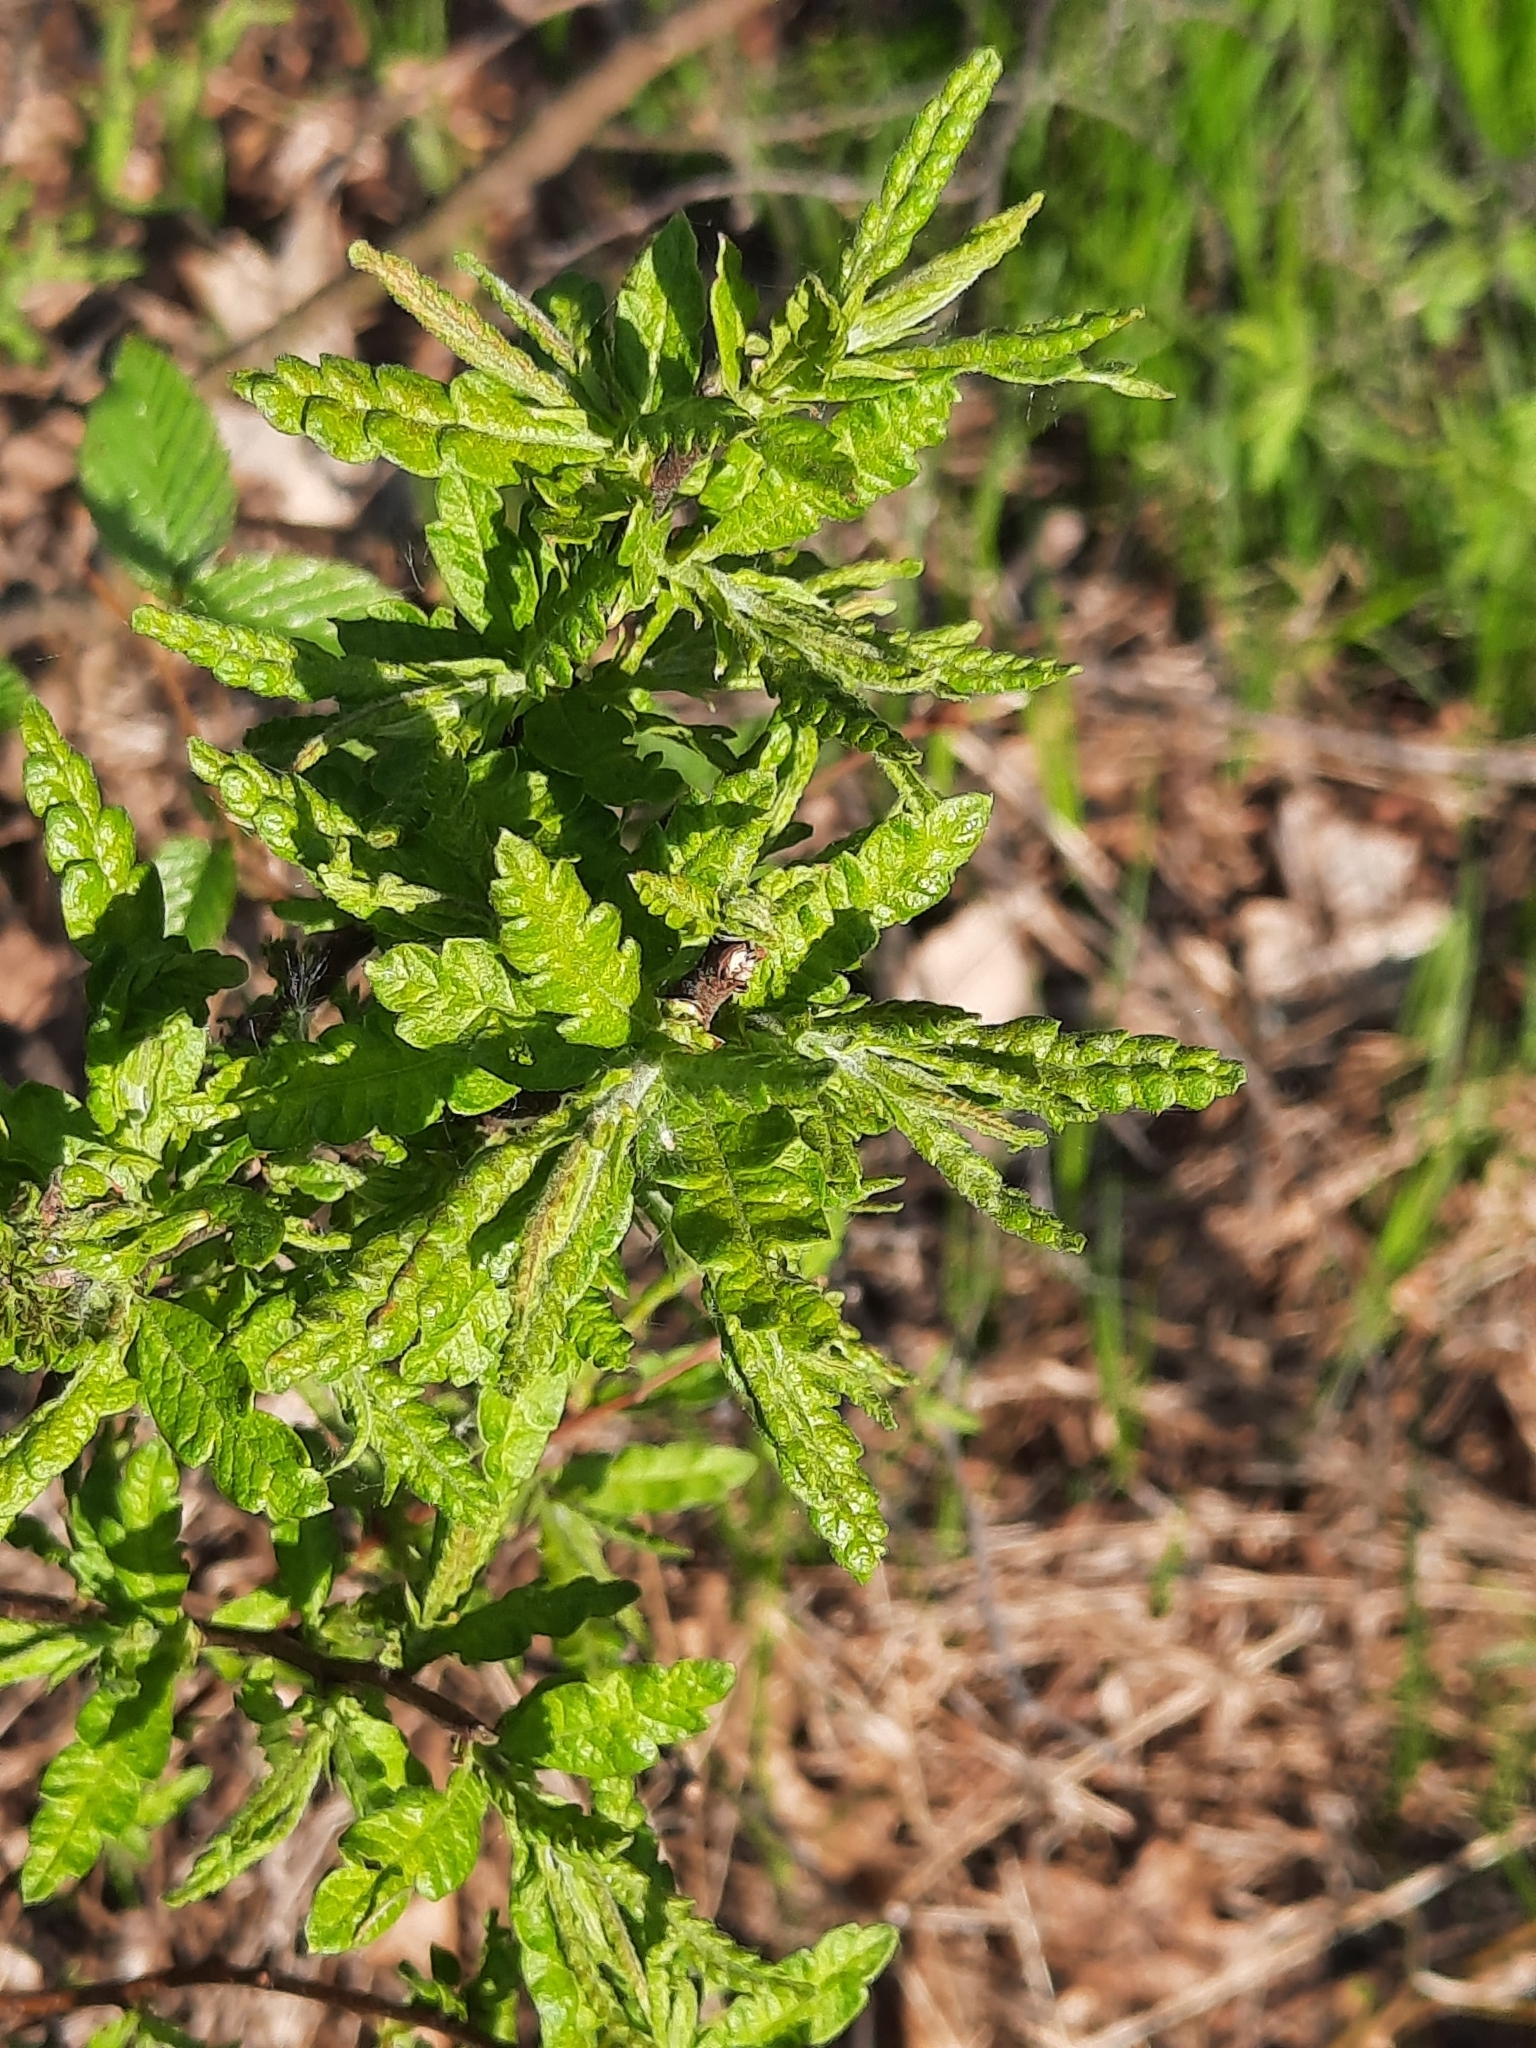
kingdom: Plantae
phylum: Tracheophyta
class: Magnoliopsida
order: Fagales
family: Myricaceae
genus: Comptonia
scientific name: Comptonia peregrina
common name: Sweet-fern
